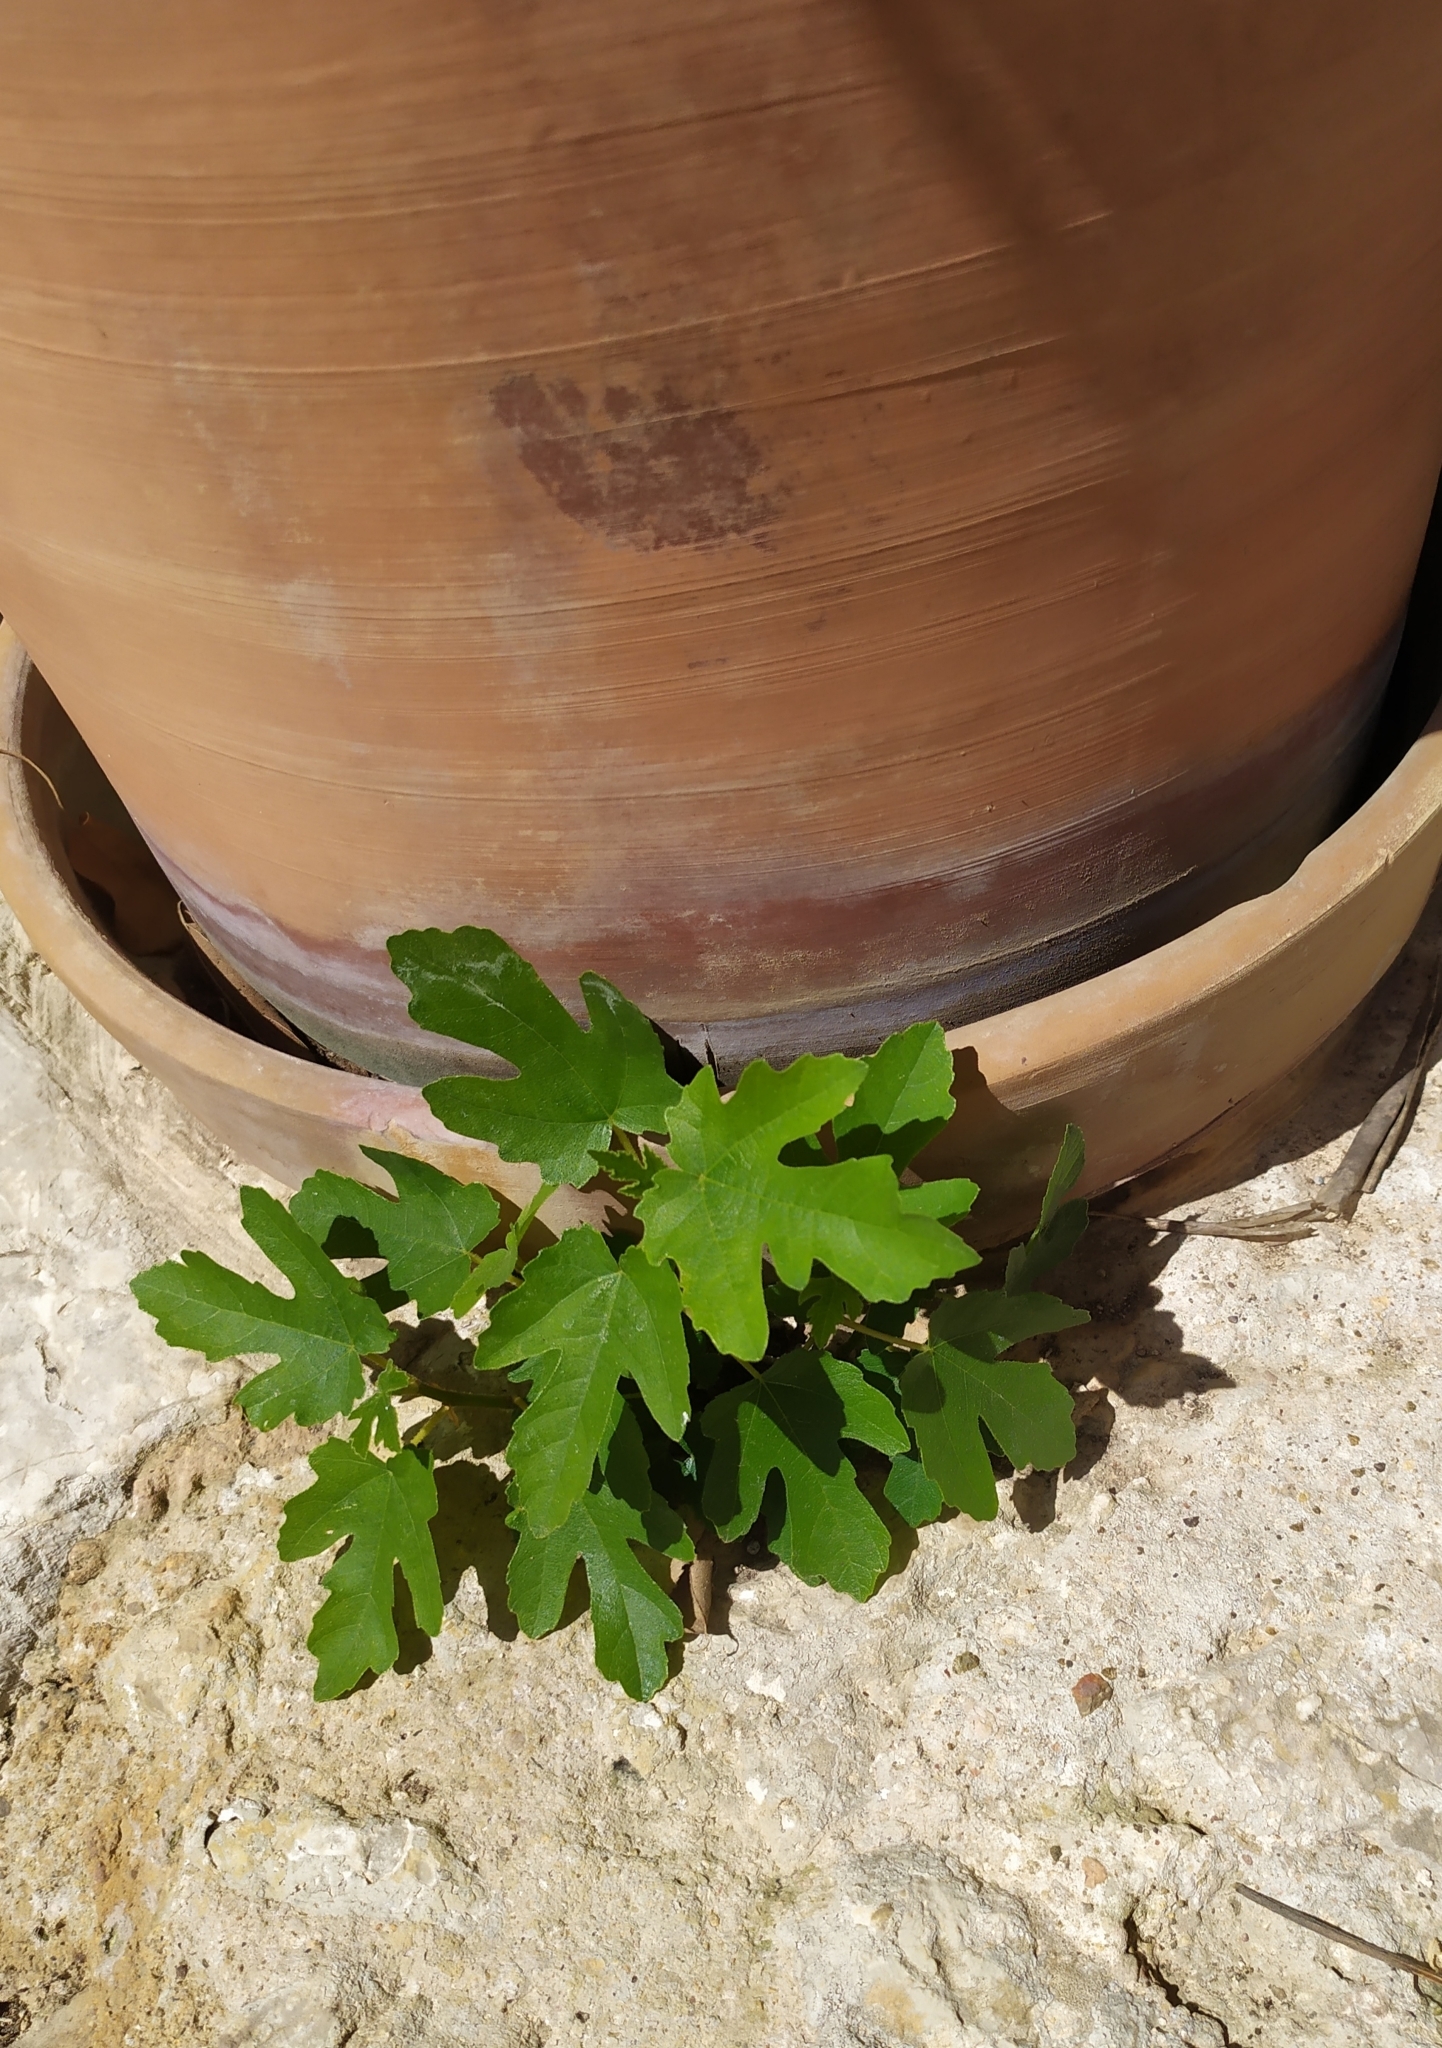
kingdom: Plantae
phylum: Tracheophyta
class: Magnoliopsida
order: Rosales
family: Moraceae
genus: Ficus
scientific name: Ficus carica
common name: Fig
